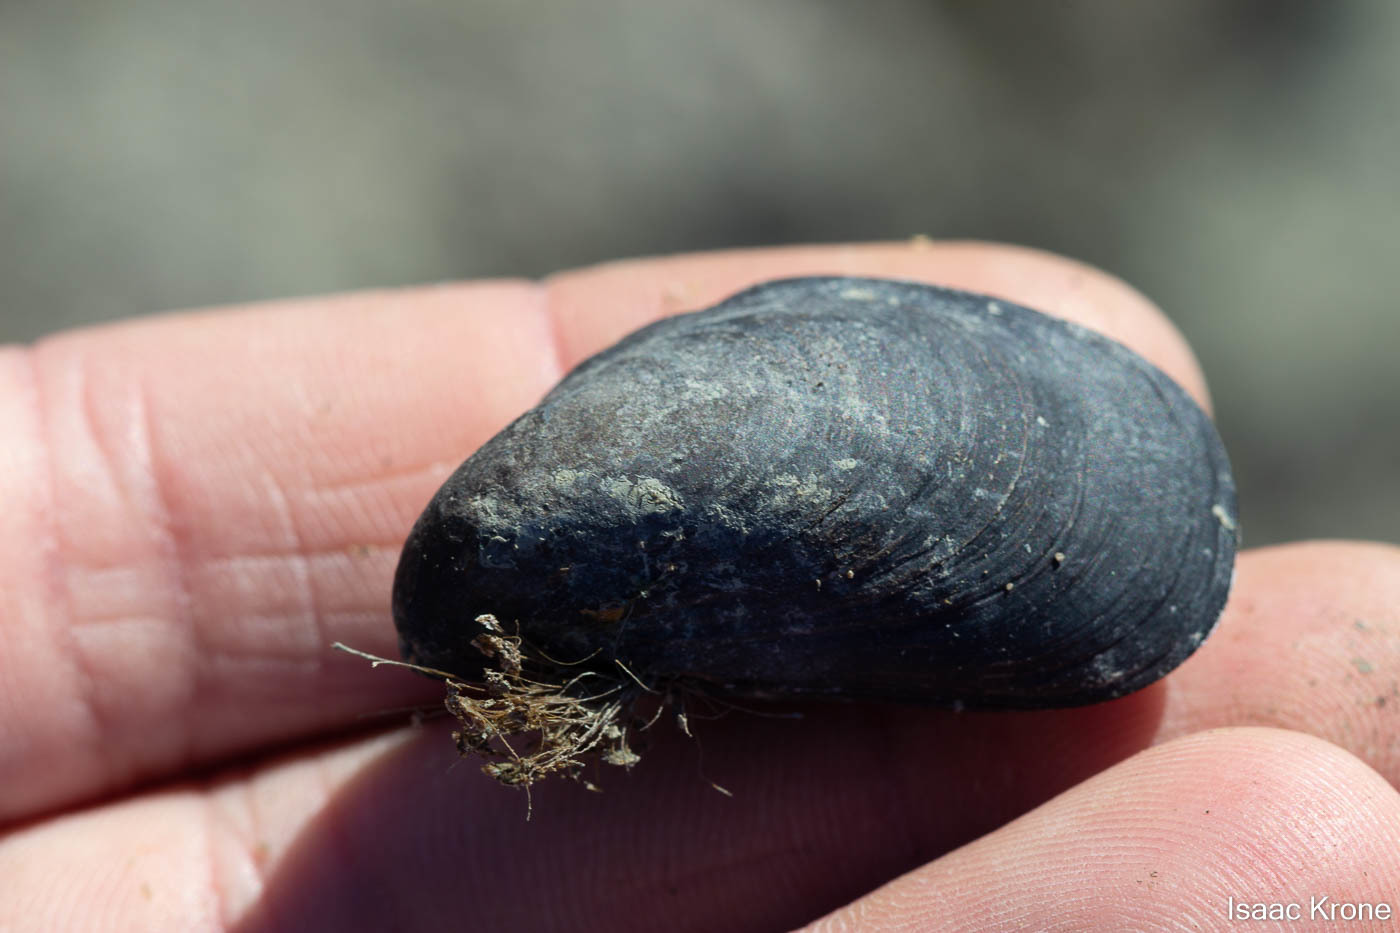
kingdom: Animalia
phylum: Mollusca
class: Bivalvia
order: Mytilida
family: Mytilidae
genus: Mytilus
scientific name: Mytilus
